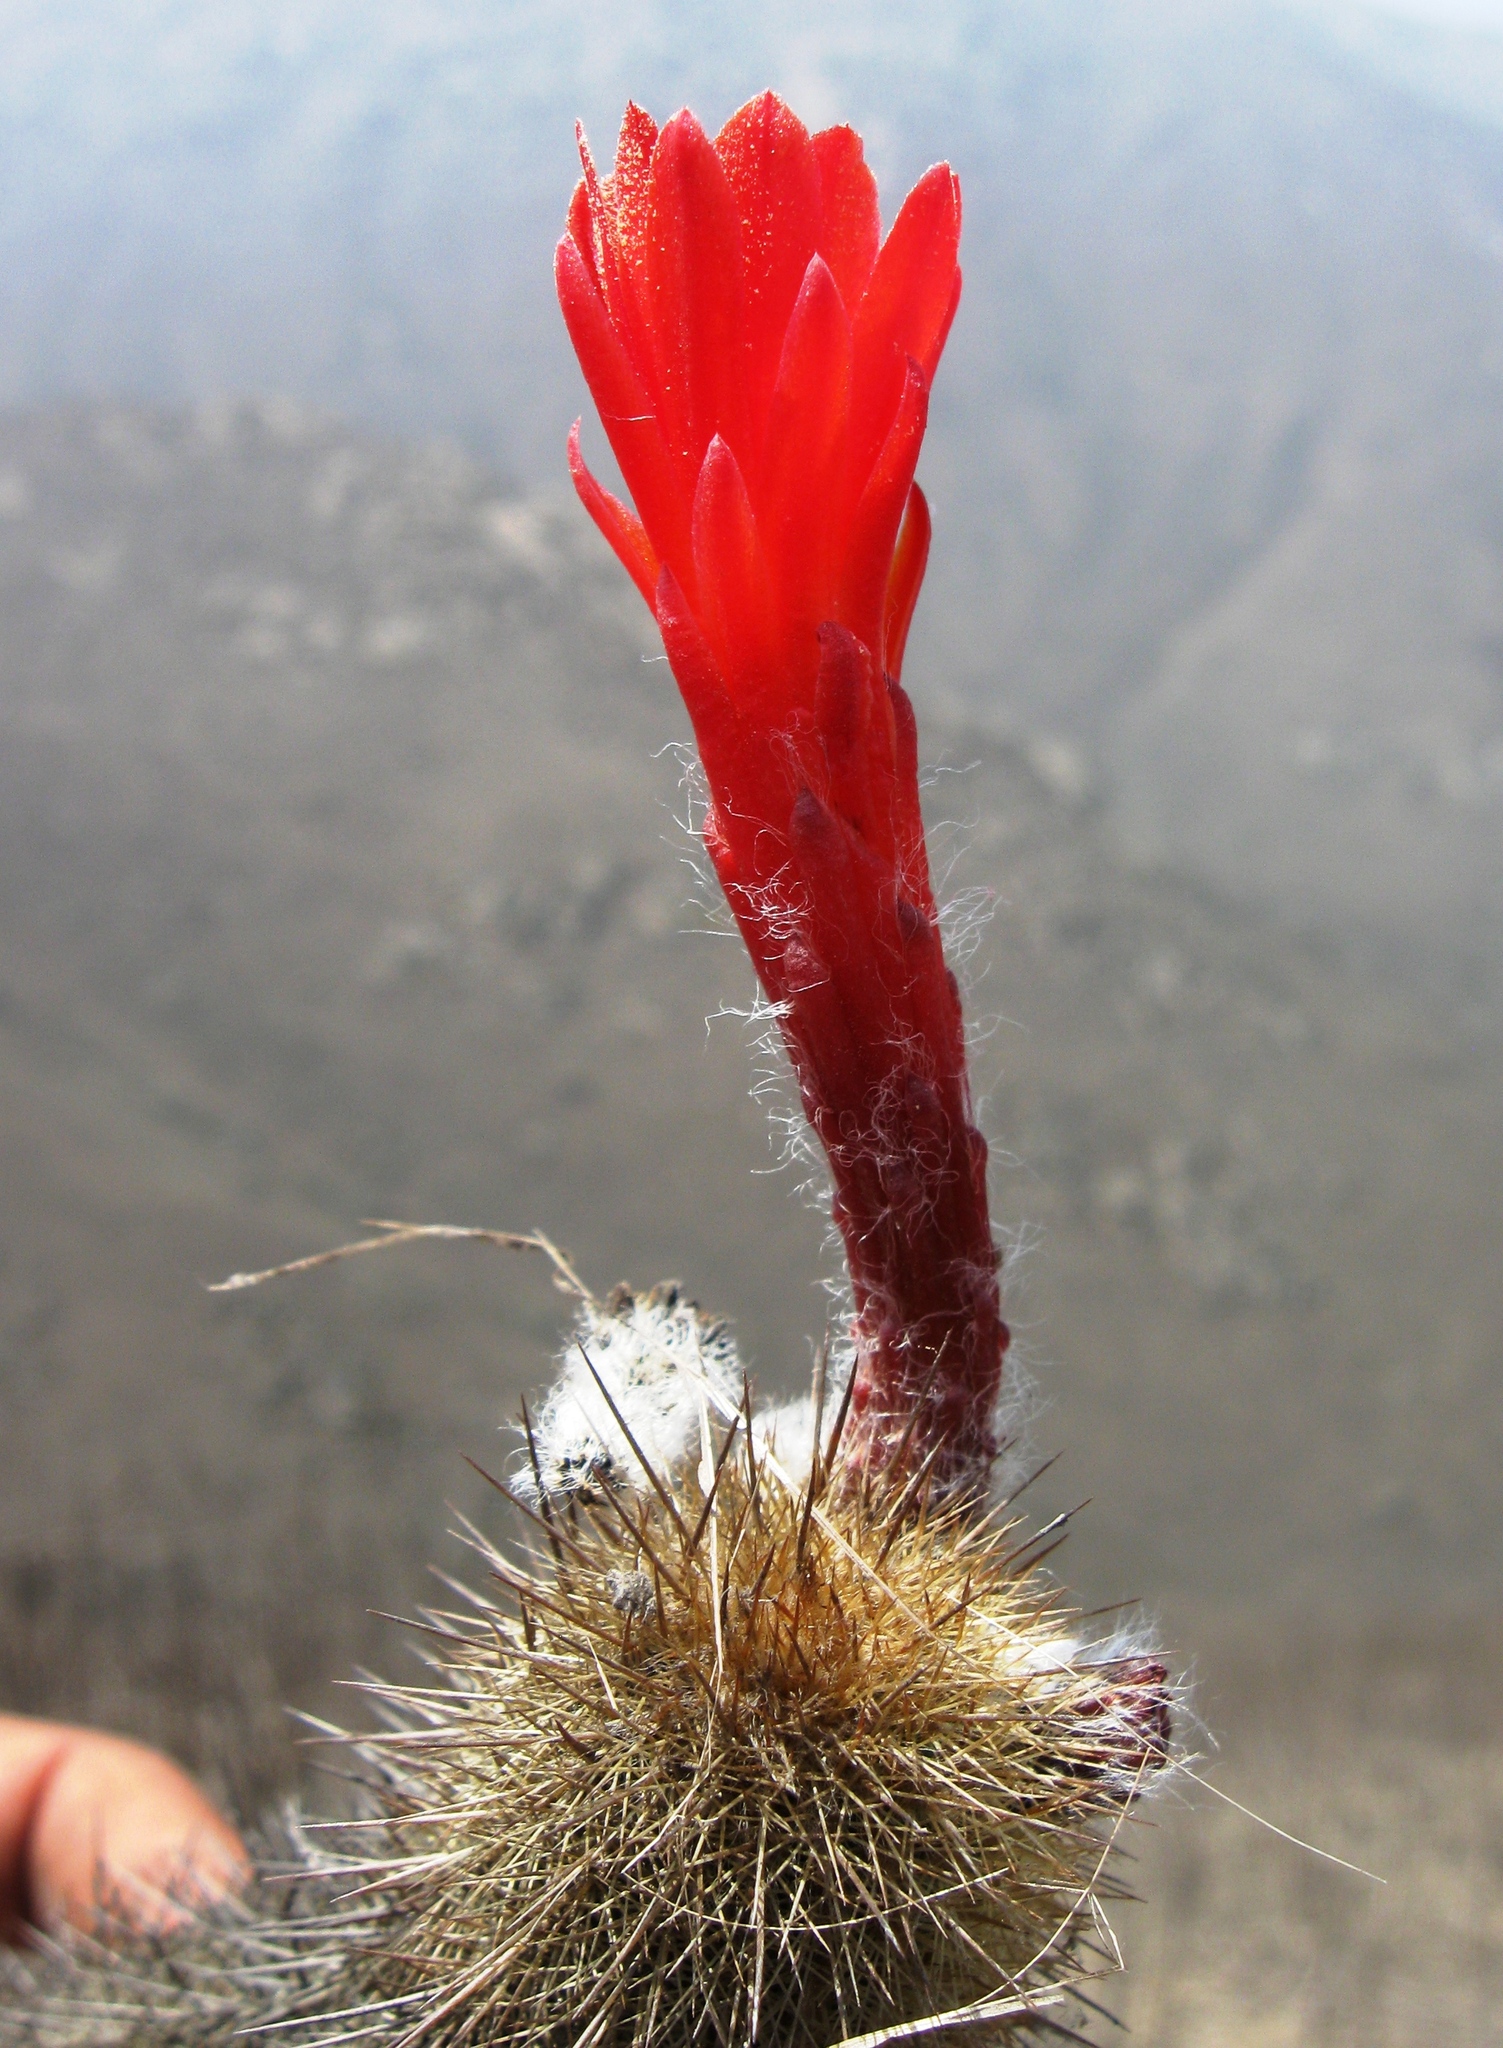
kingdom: Plantae
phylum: Tracheophyta
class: Magnoliopsida
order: Caryophyllales
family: Cactaceae
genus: Borzicactus
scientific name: Borzicactus acanthurus
